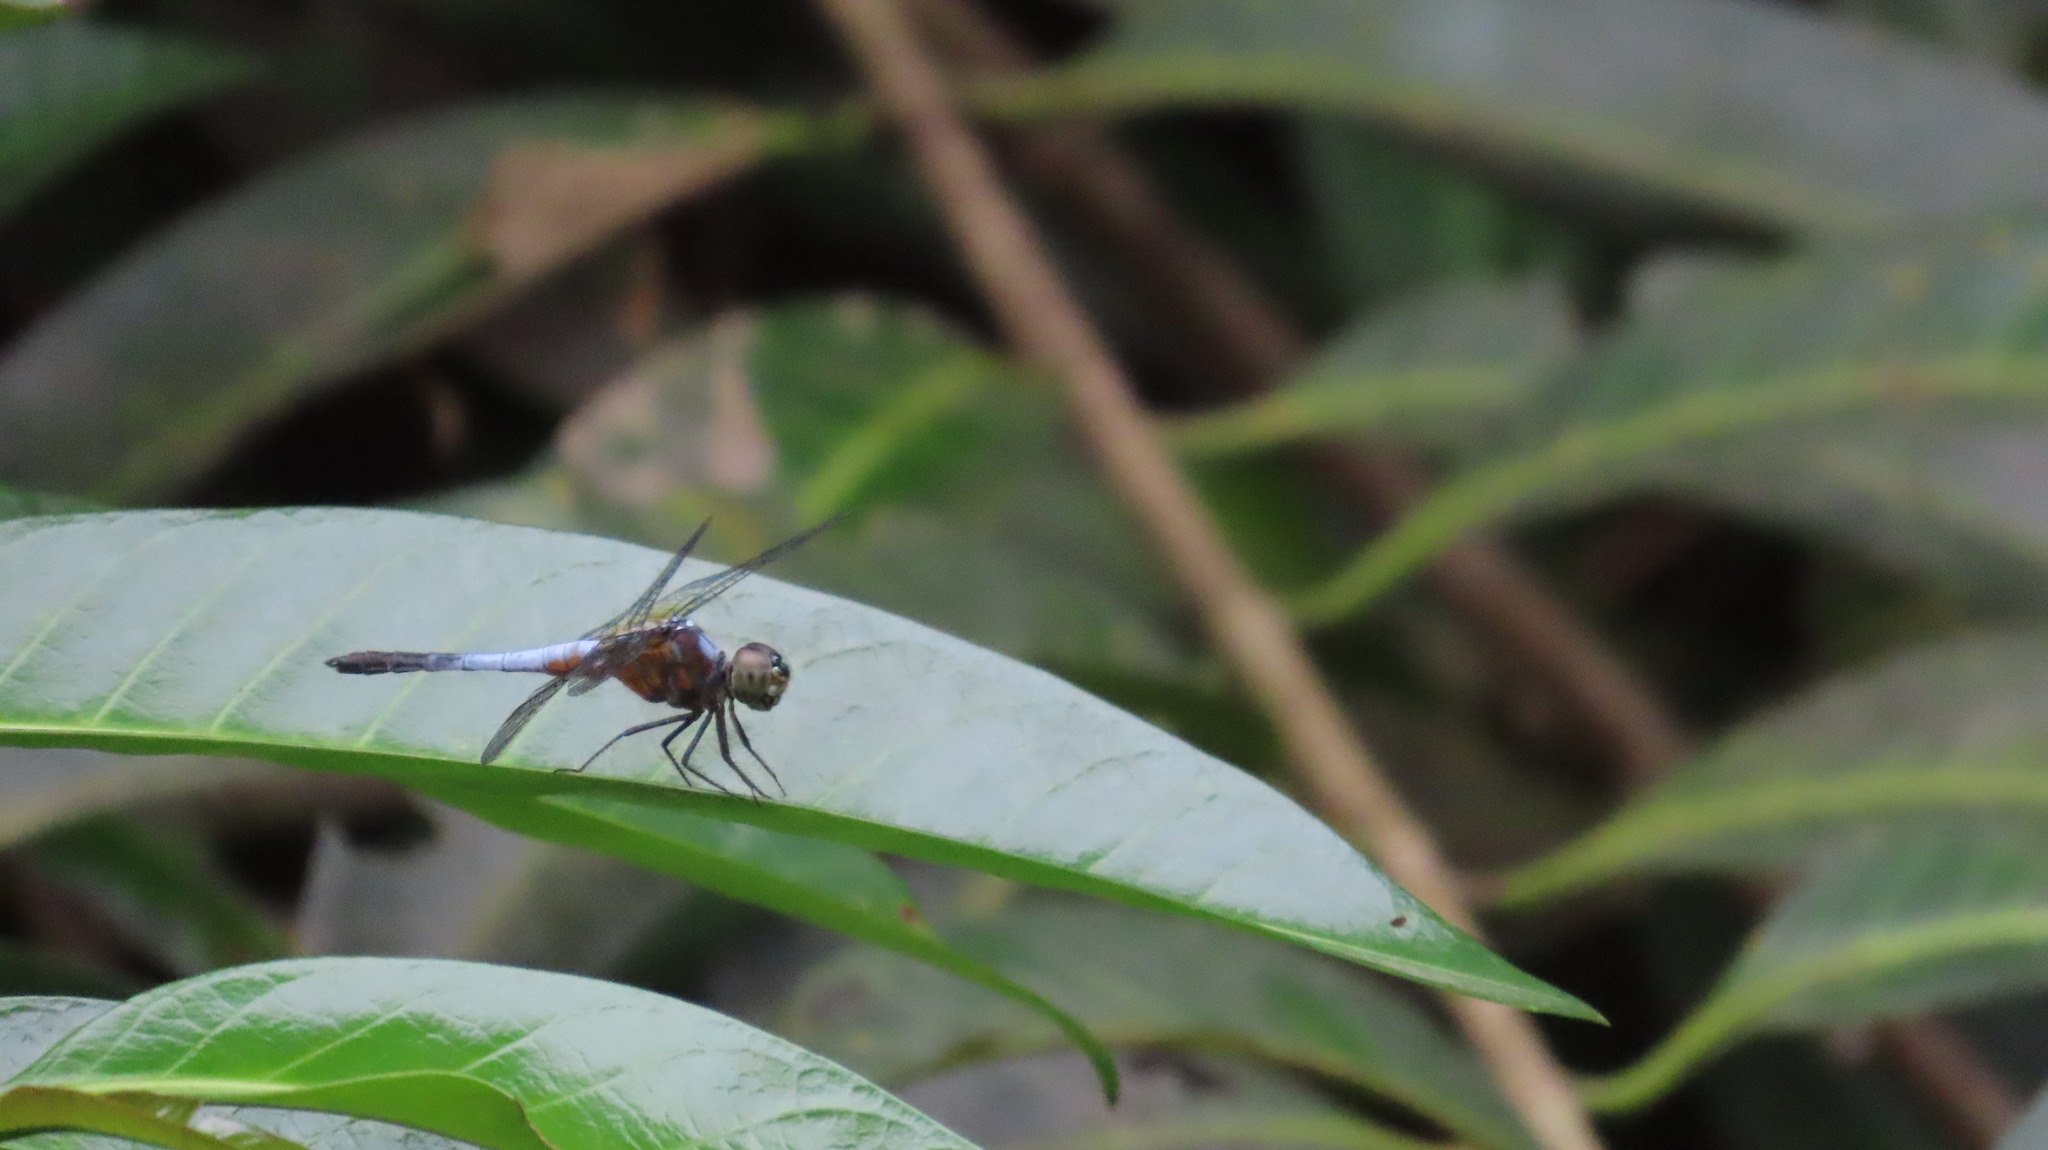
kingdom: Animalia
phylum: Arthropoda
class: Insecta
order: Odonata
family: Libellulidae
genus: Brachydiplax
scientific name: Brachydiplax chalybea
